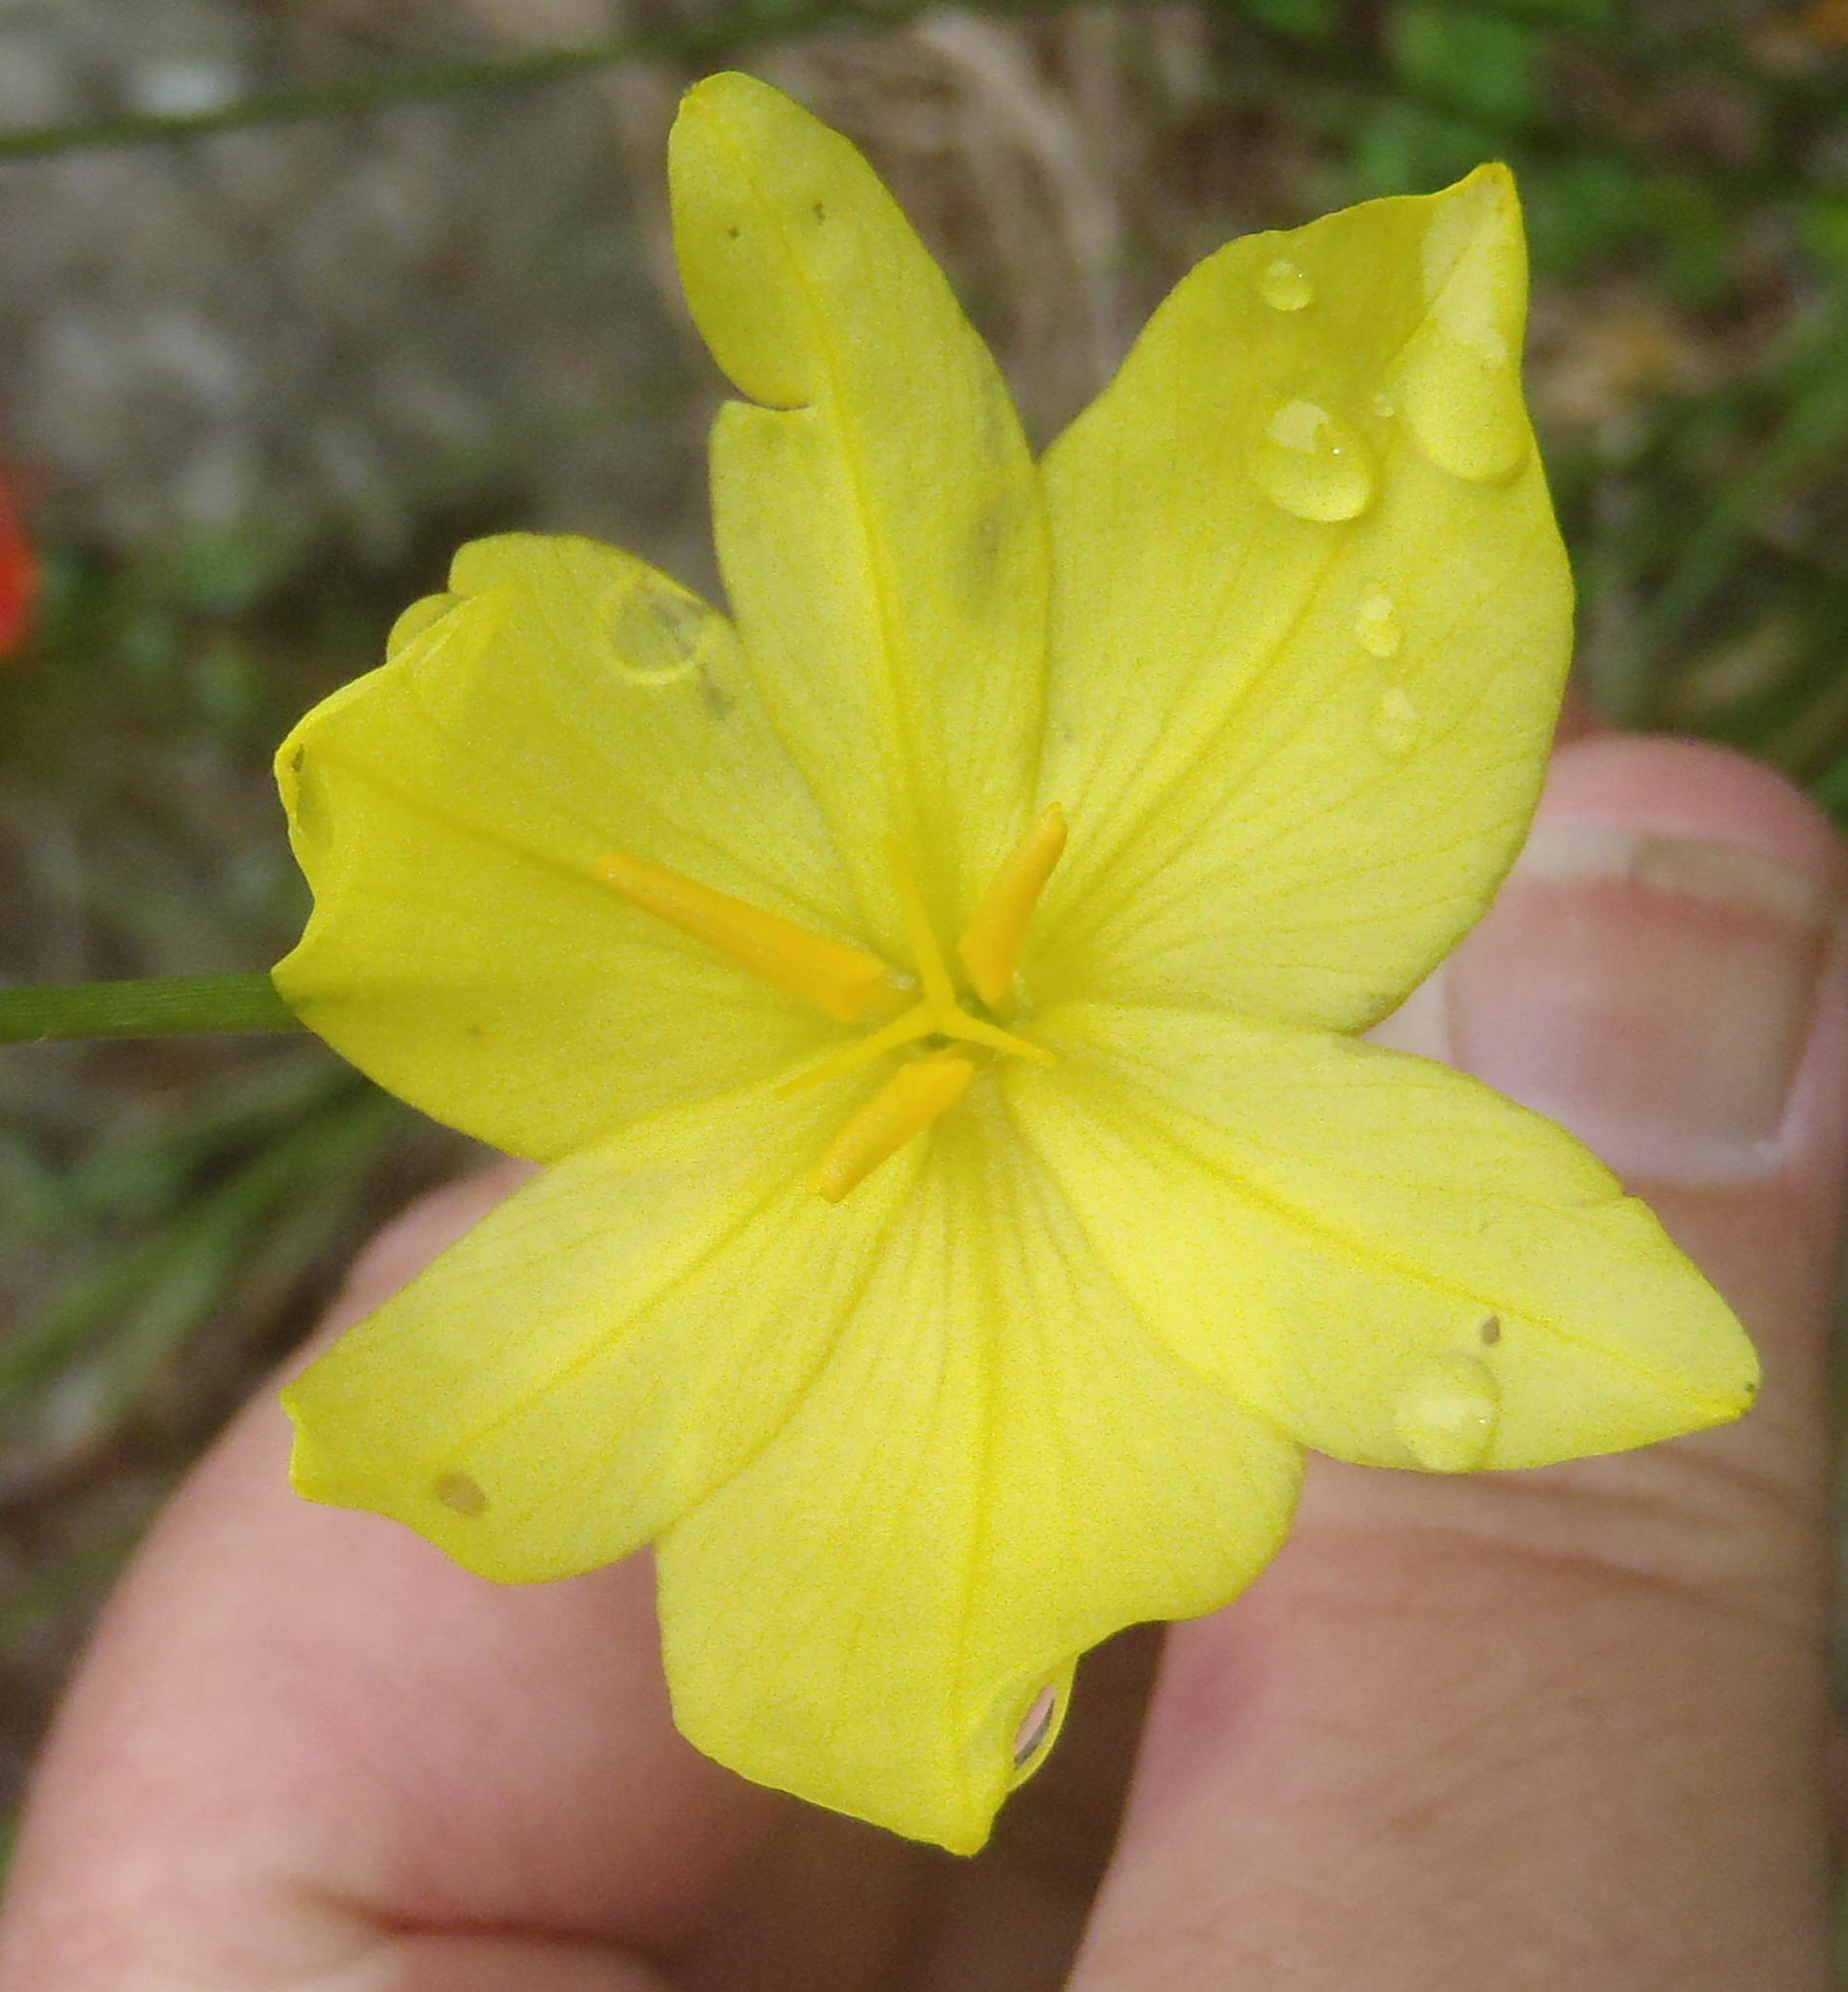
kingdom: Plantae
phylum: Tracheophyta
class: Liliopsida
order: Asparagales
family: Iridaceae
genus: Bobartia
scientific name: Bobartia aphylla
